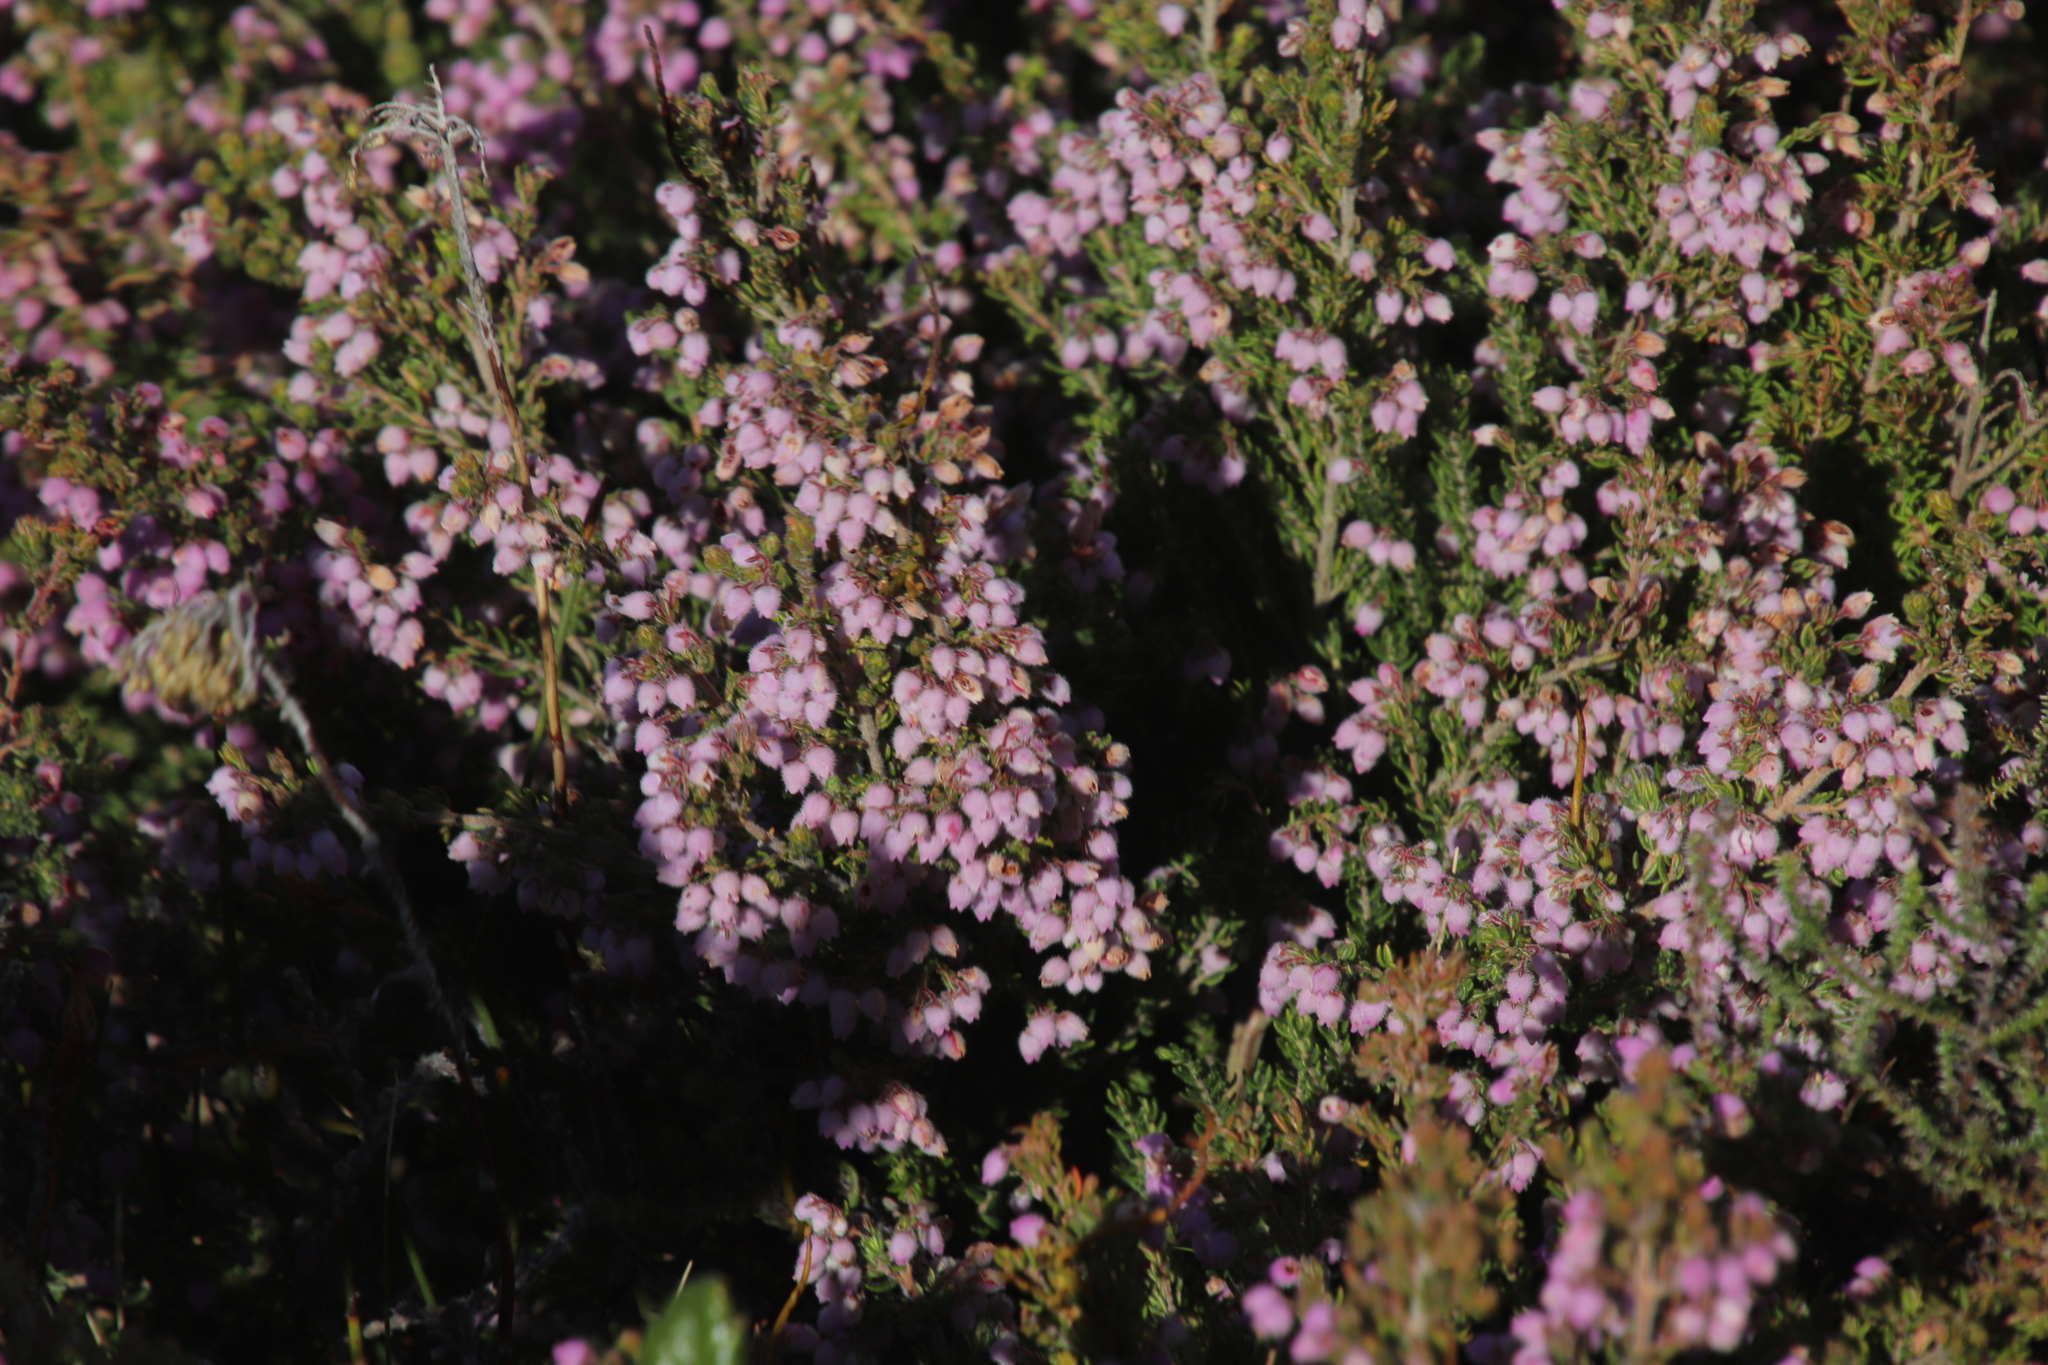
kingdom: Plantae
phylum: Tracheophyta
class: Magnoliopsida
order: Ericales
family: Ericaceae
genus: Erica
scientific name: Erica hirtiflora
